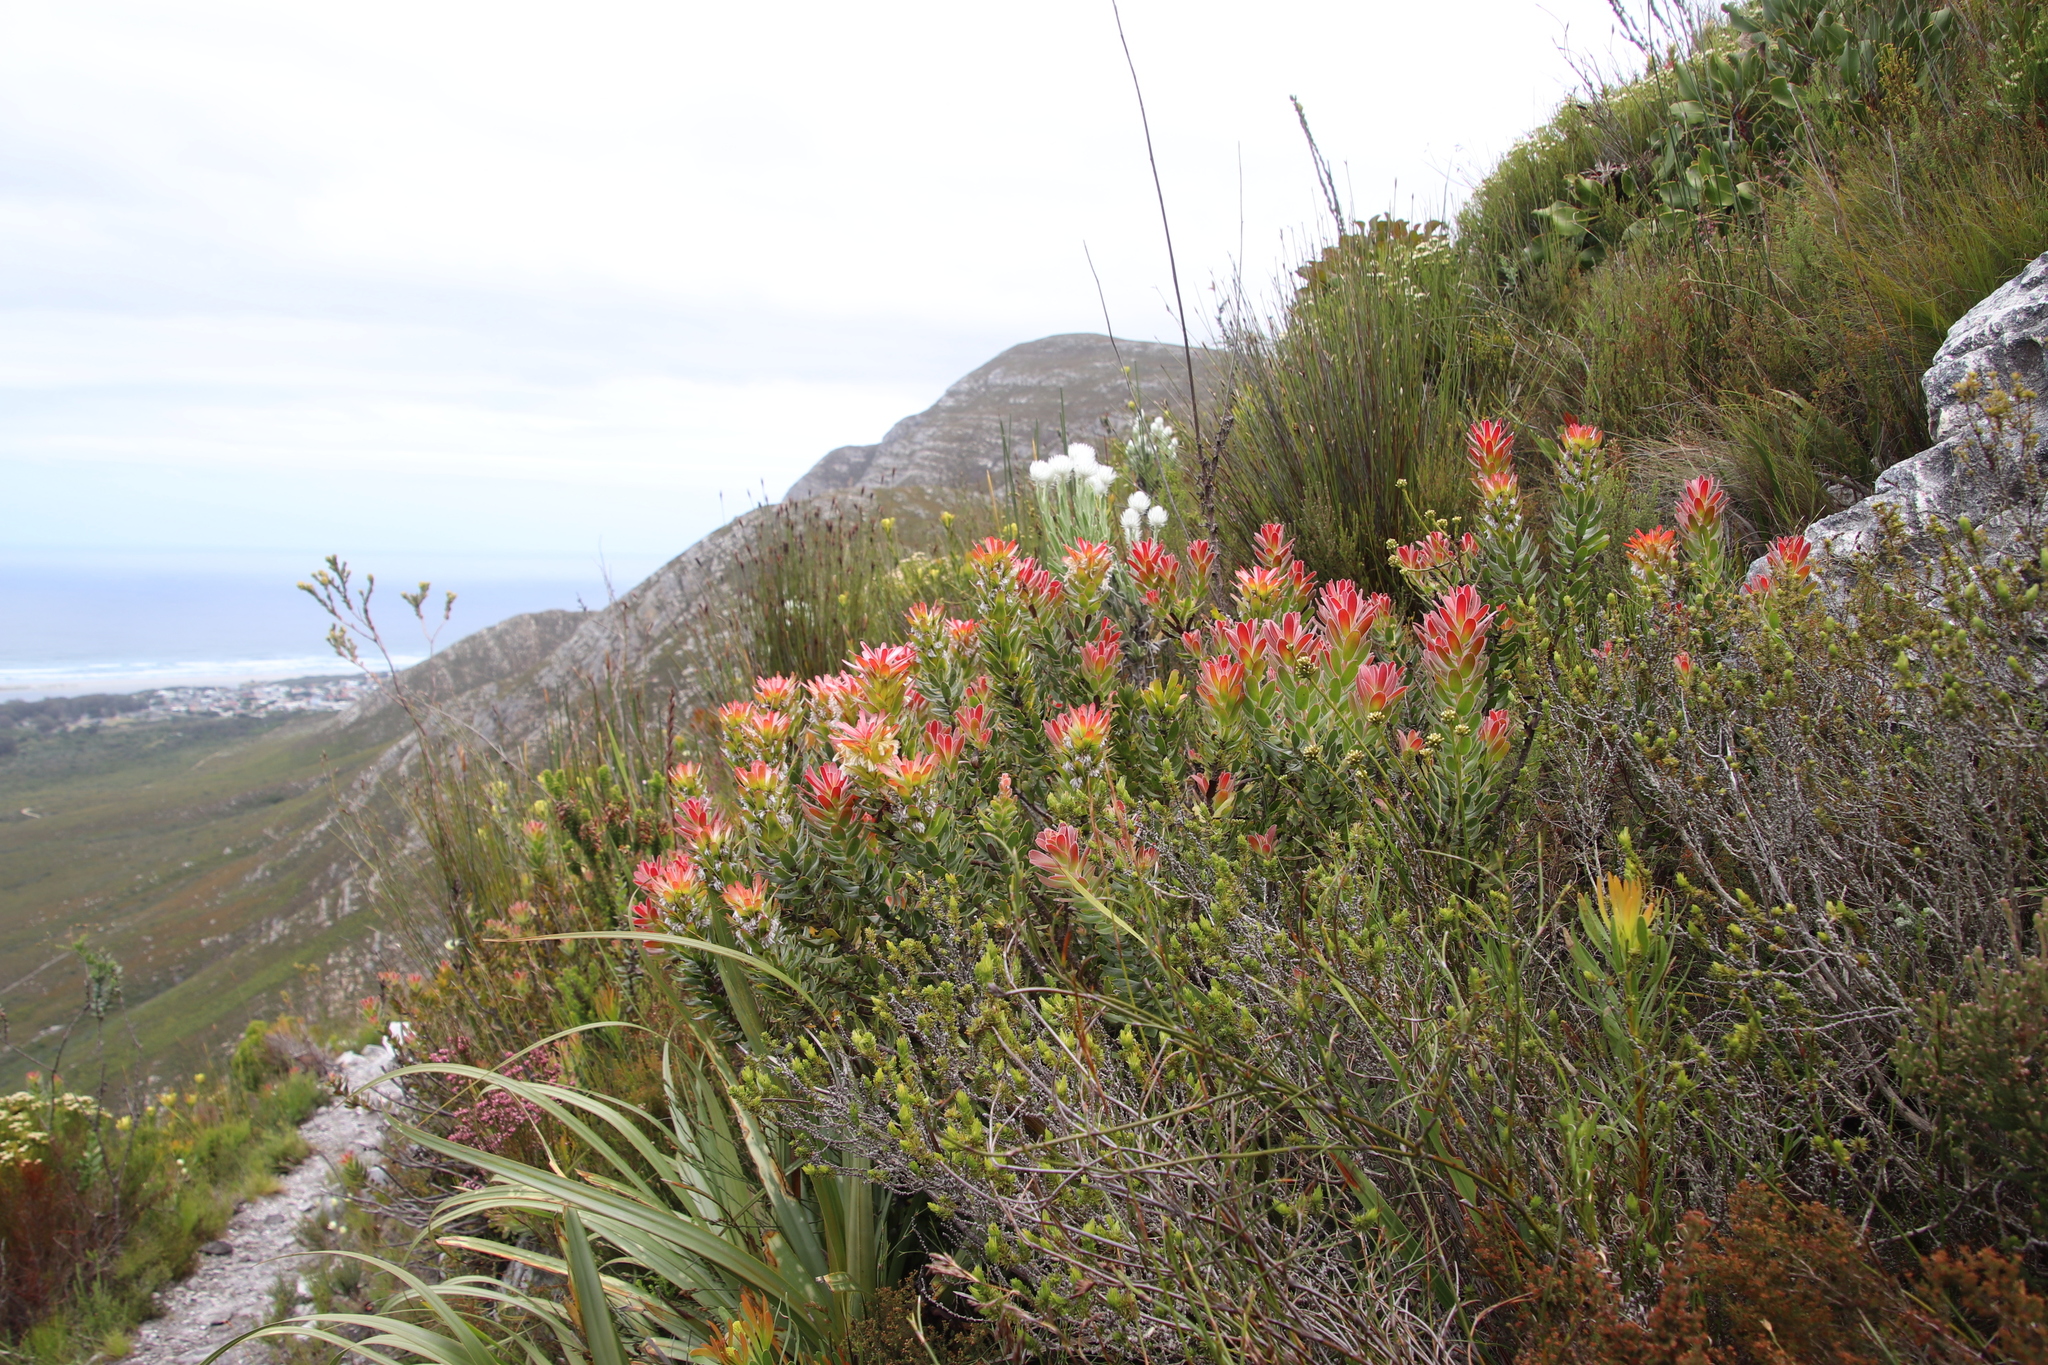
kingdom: Plantae
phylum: Tracheophyta
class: Magnoliopsida
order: Proteales
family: Proteaceae
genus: Mimetes
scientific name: Mimetes cucullatus
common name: Common pagoda
